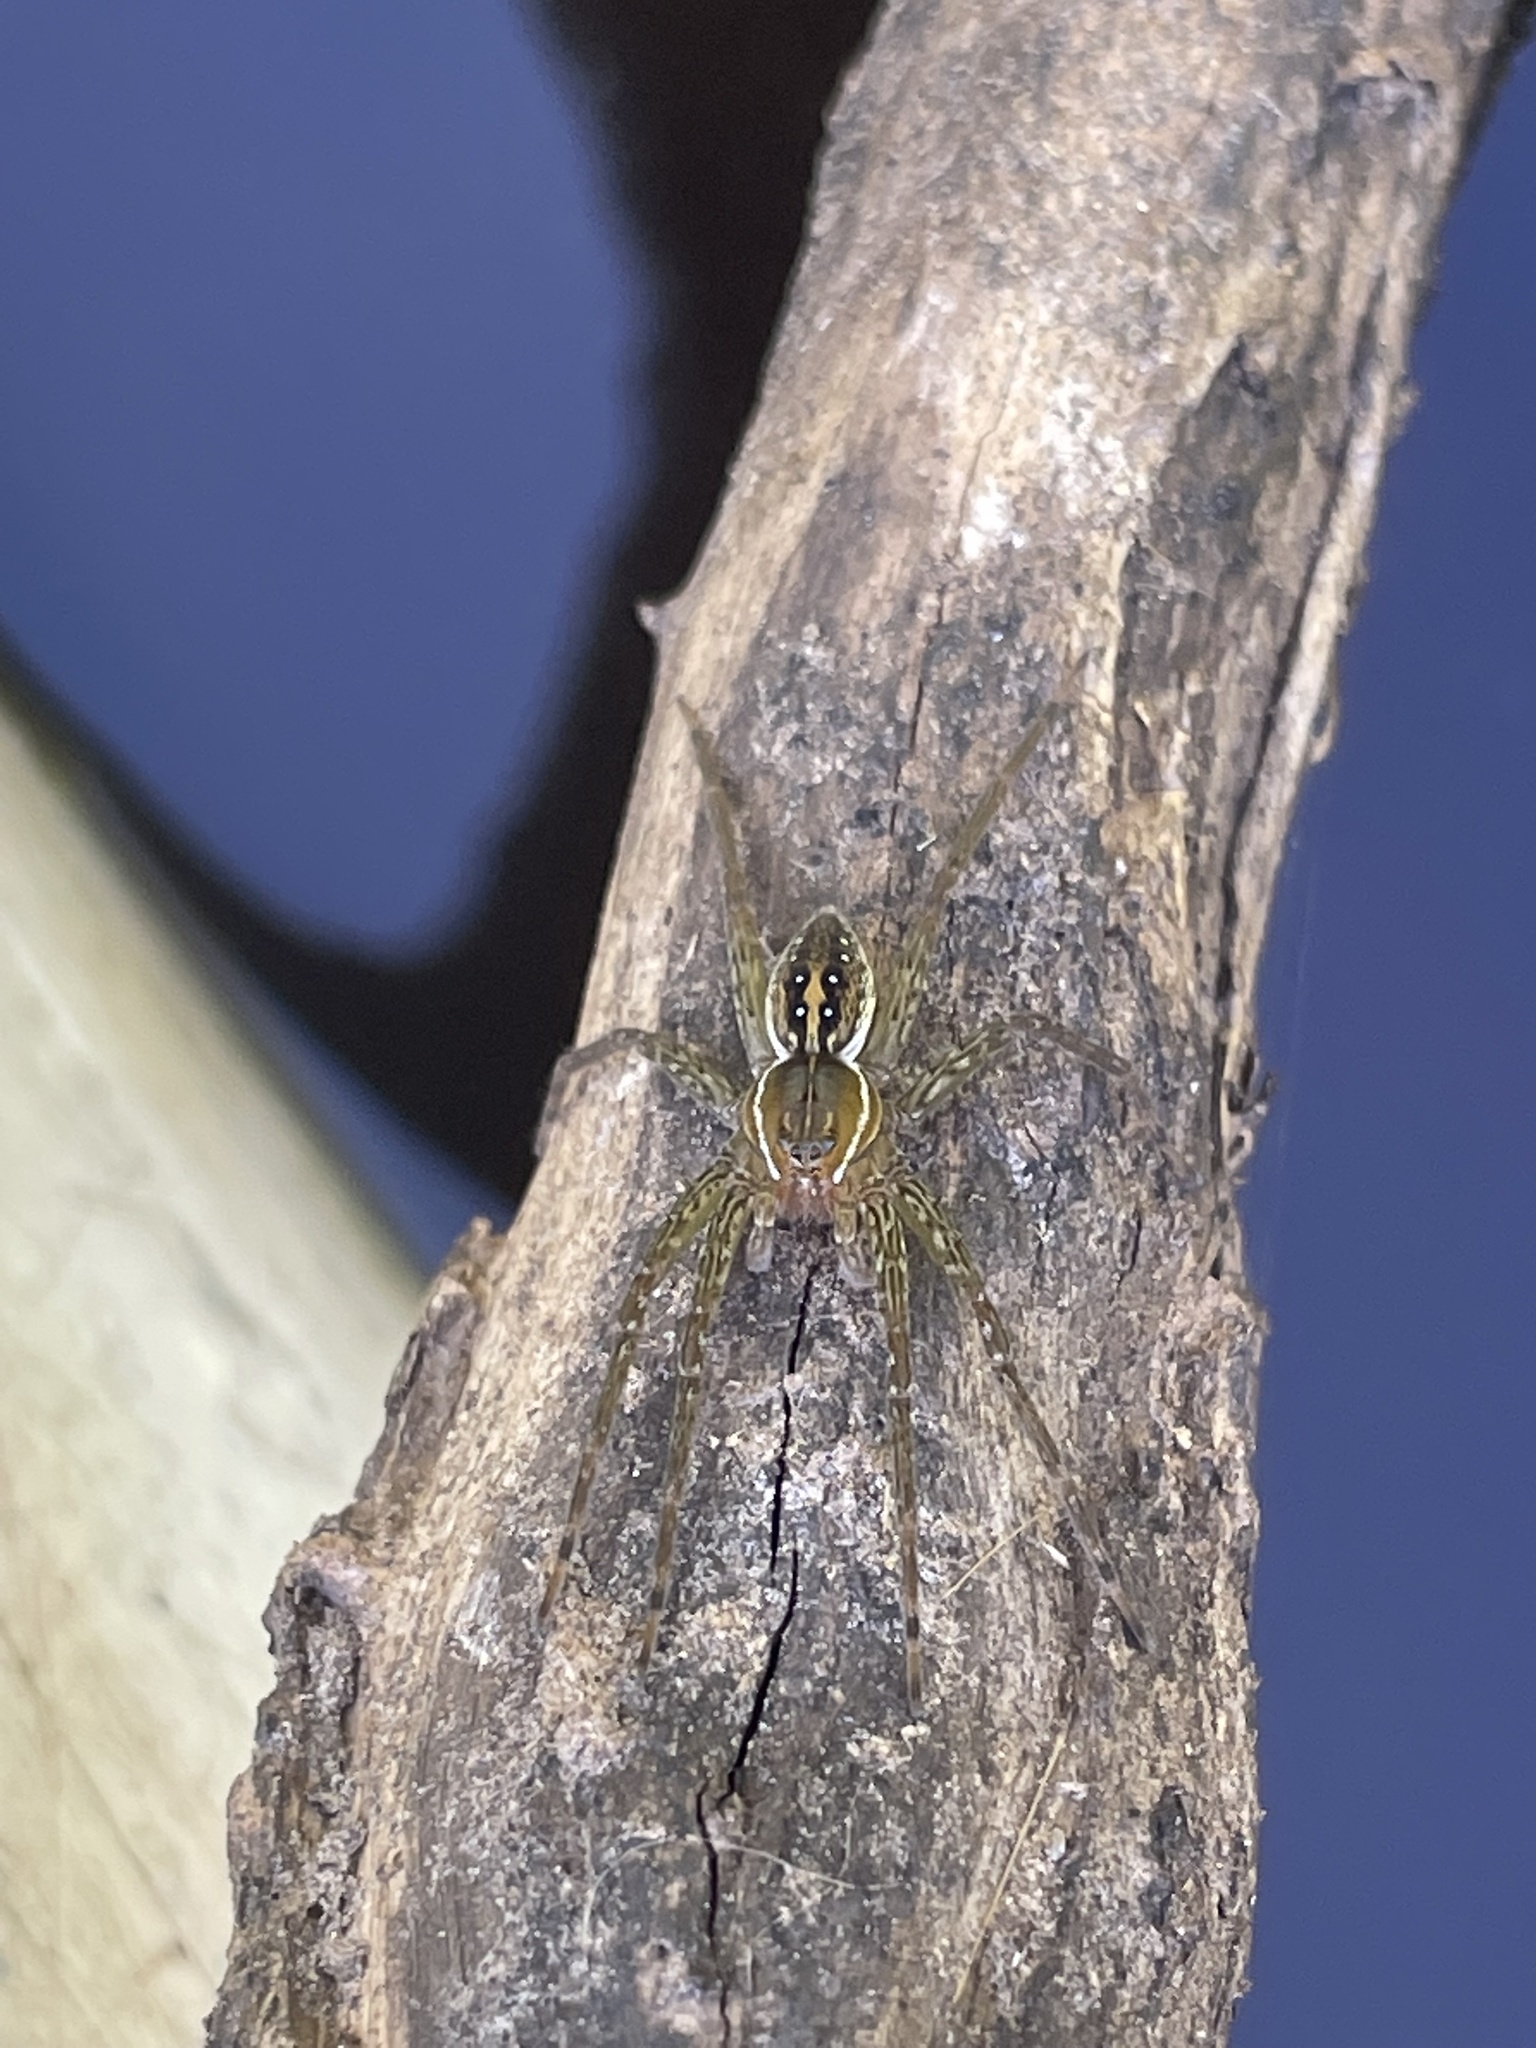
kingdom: Animalia
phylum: Arthropoda
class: Arachnida
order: Araneae
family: Pisauridae
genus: Dolomedes
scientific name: Dolomedes triton
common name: Six-spotted fishing spider
